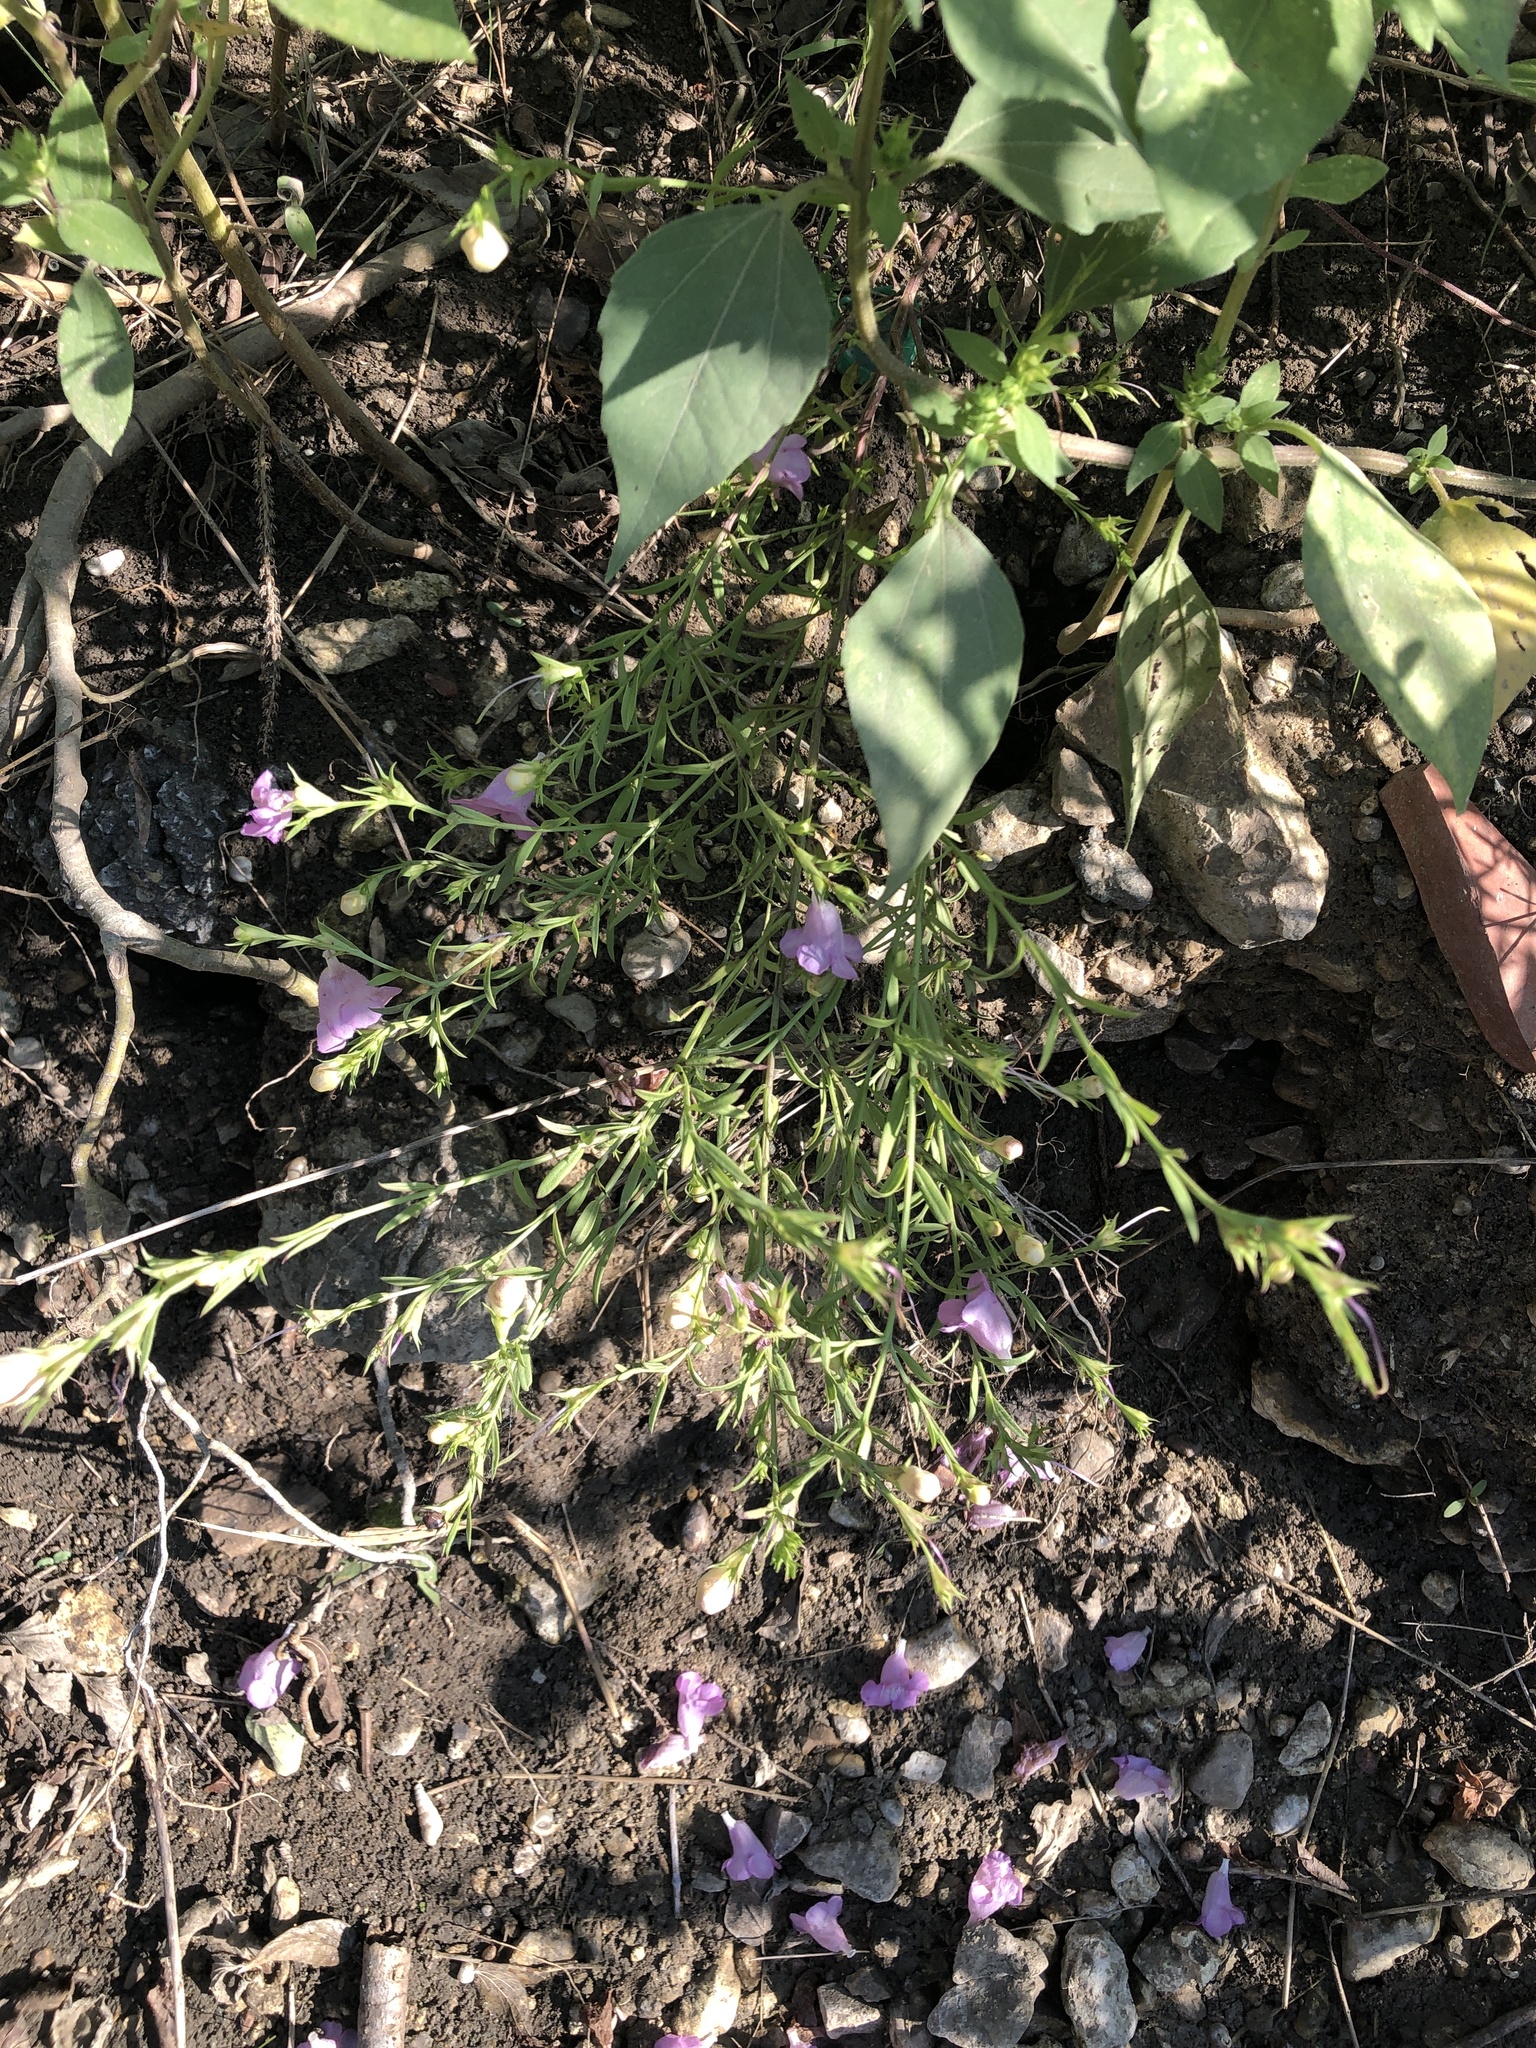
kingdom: Plantae
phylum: Tracheophyta
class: Magnoliopsida
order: Lamiales
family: Orobanchaceae
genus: Agalinis
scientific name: Agalinis heterophylla
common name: Prairie agalinis
